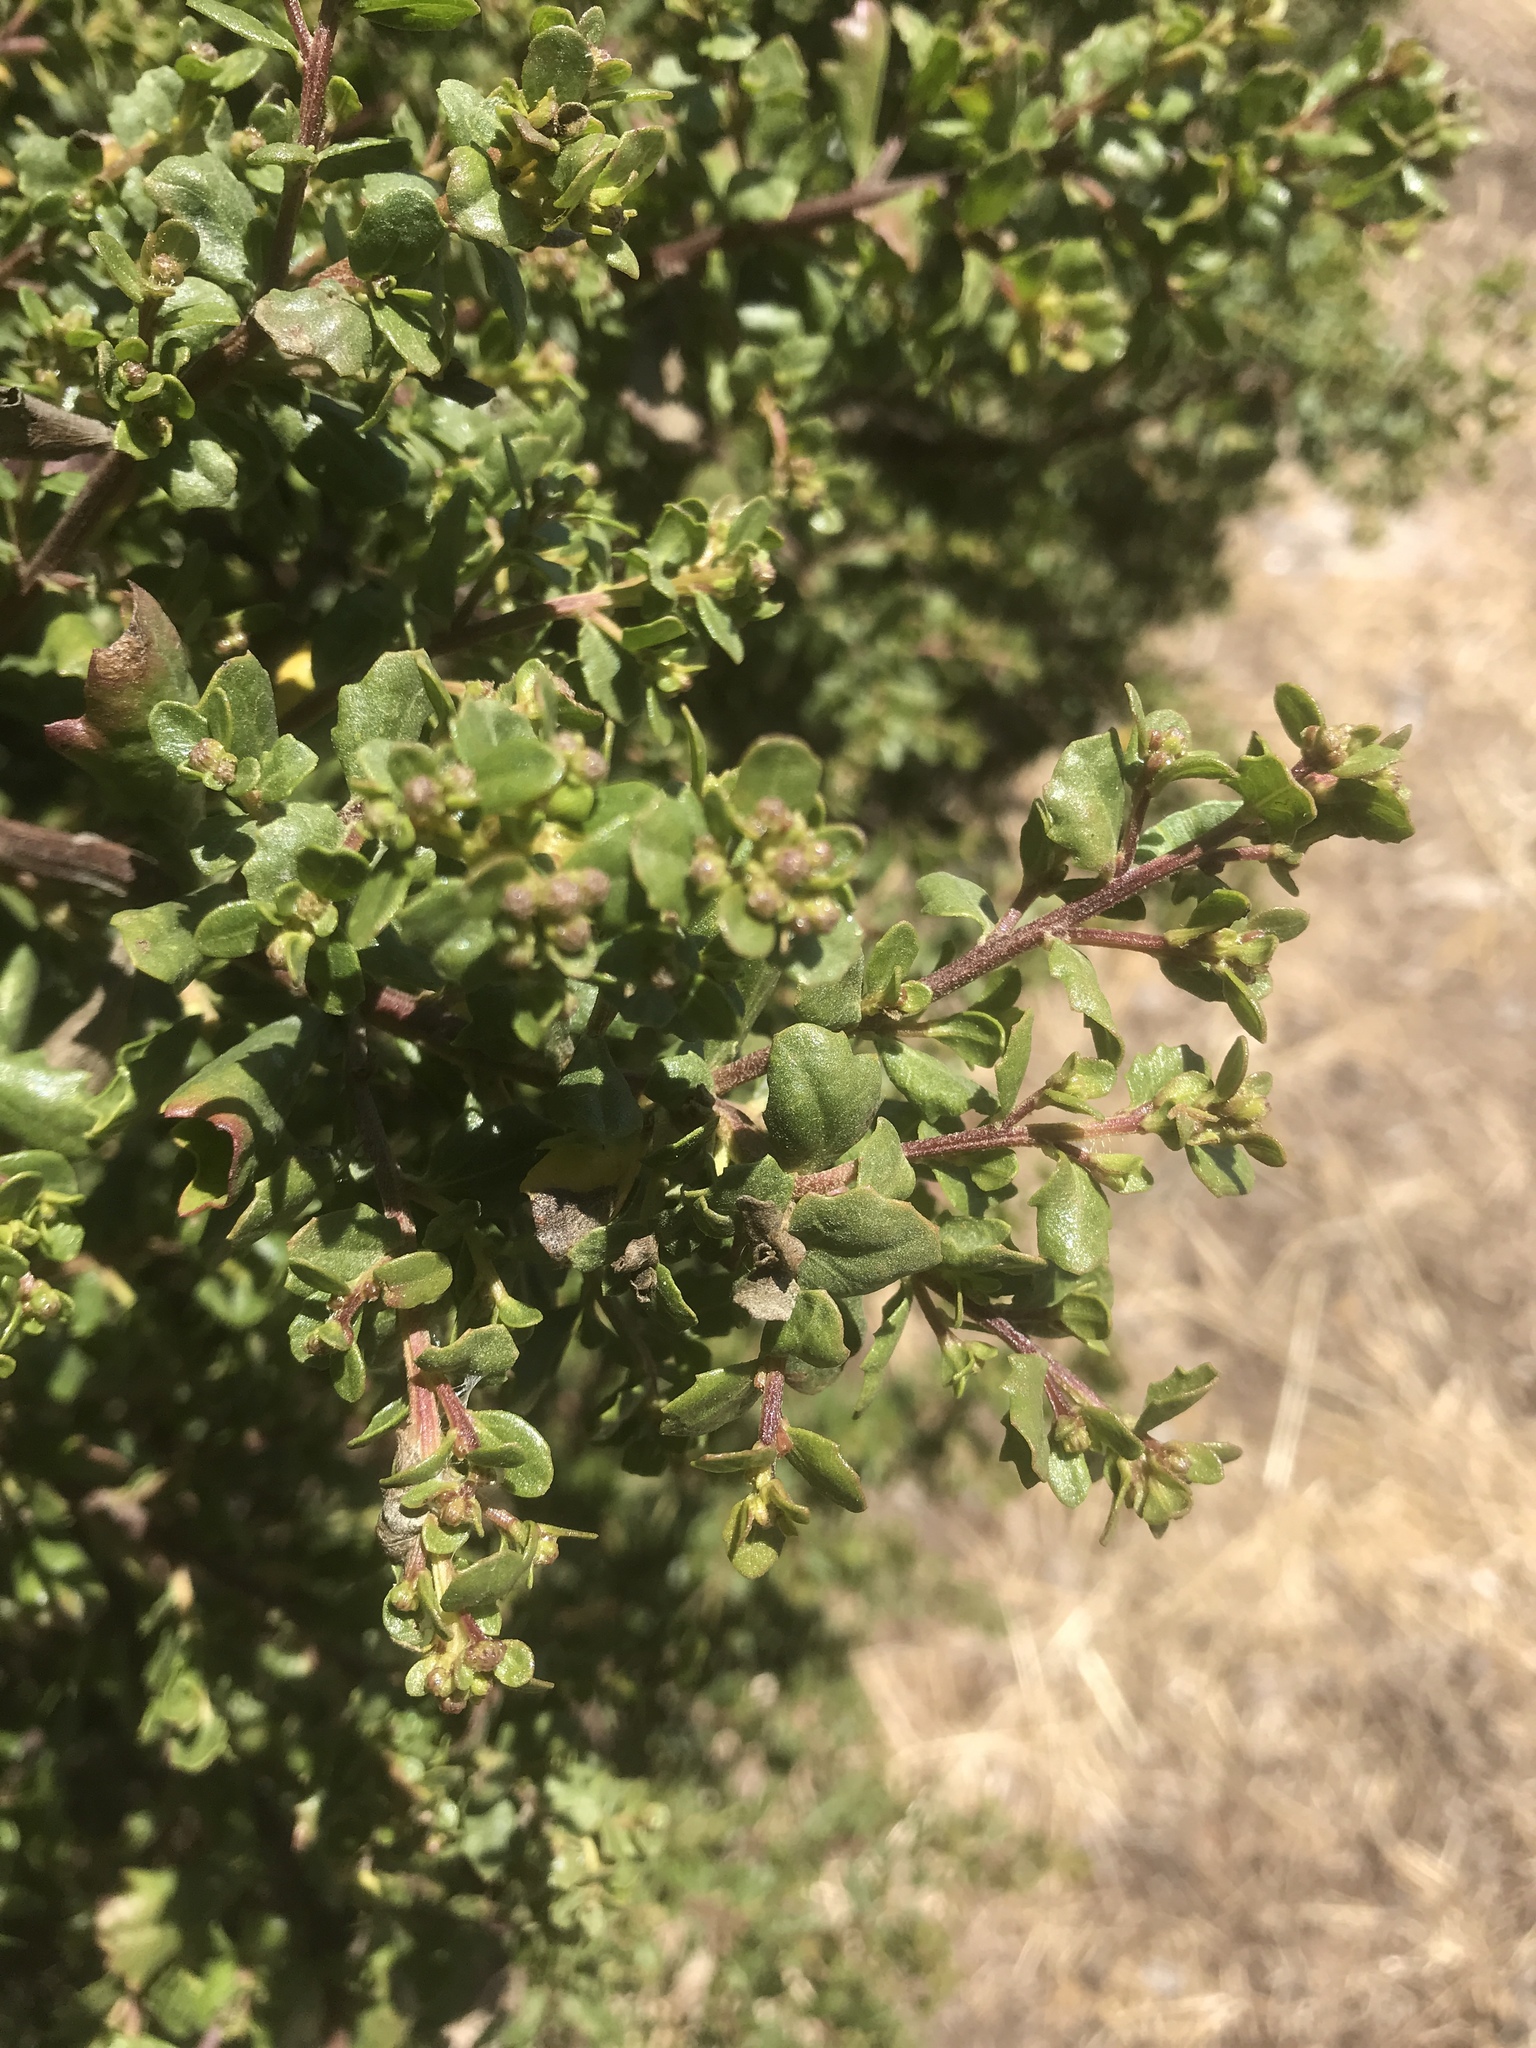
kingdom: Plantae
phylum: Tracheophyta
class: Magnoliopsida
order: Asterales
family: Asteraceae
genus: Baccharis
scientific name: Baccharis pilularis
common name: Coyotebrush
